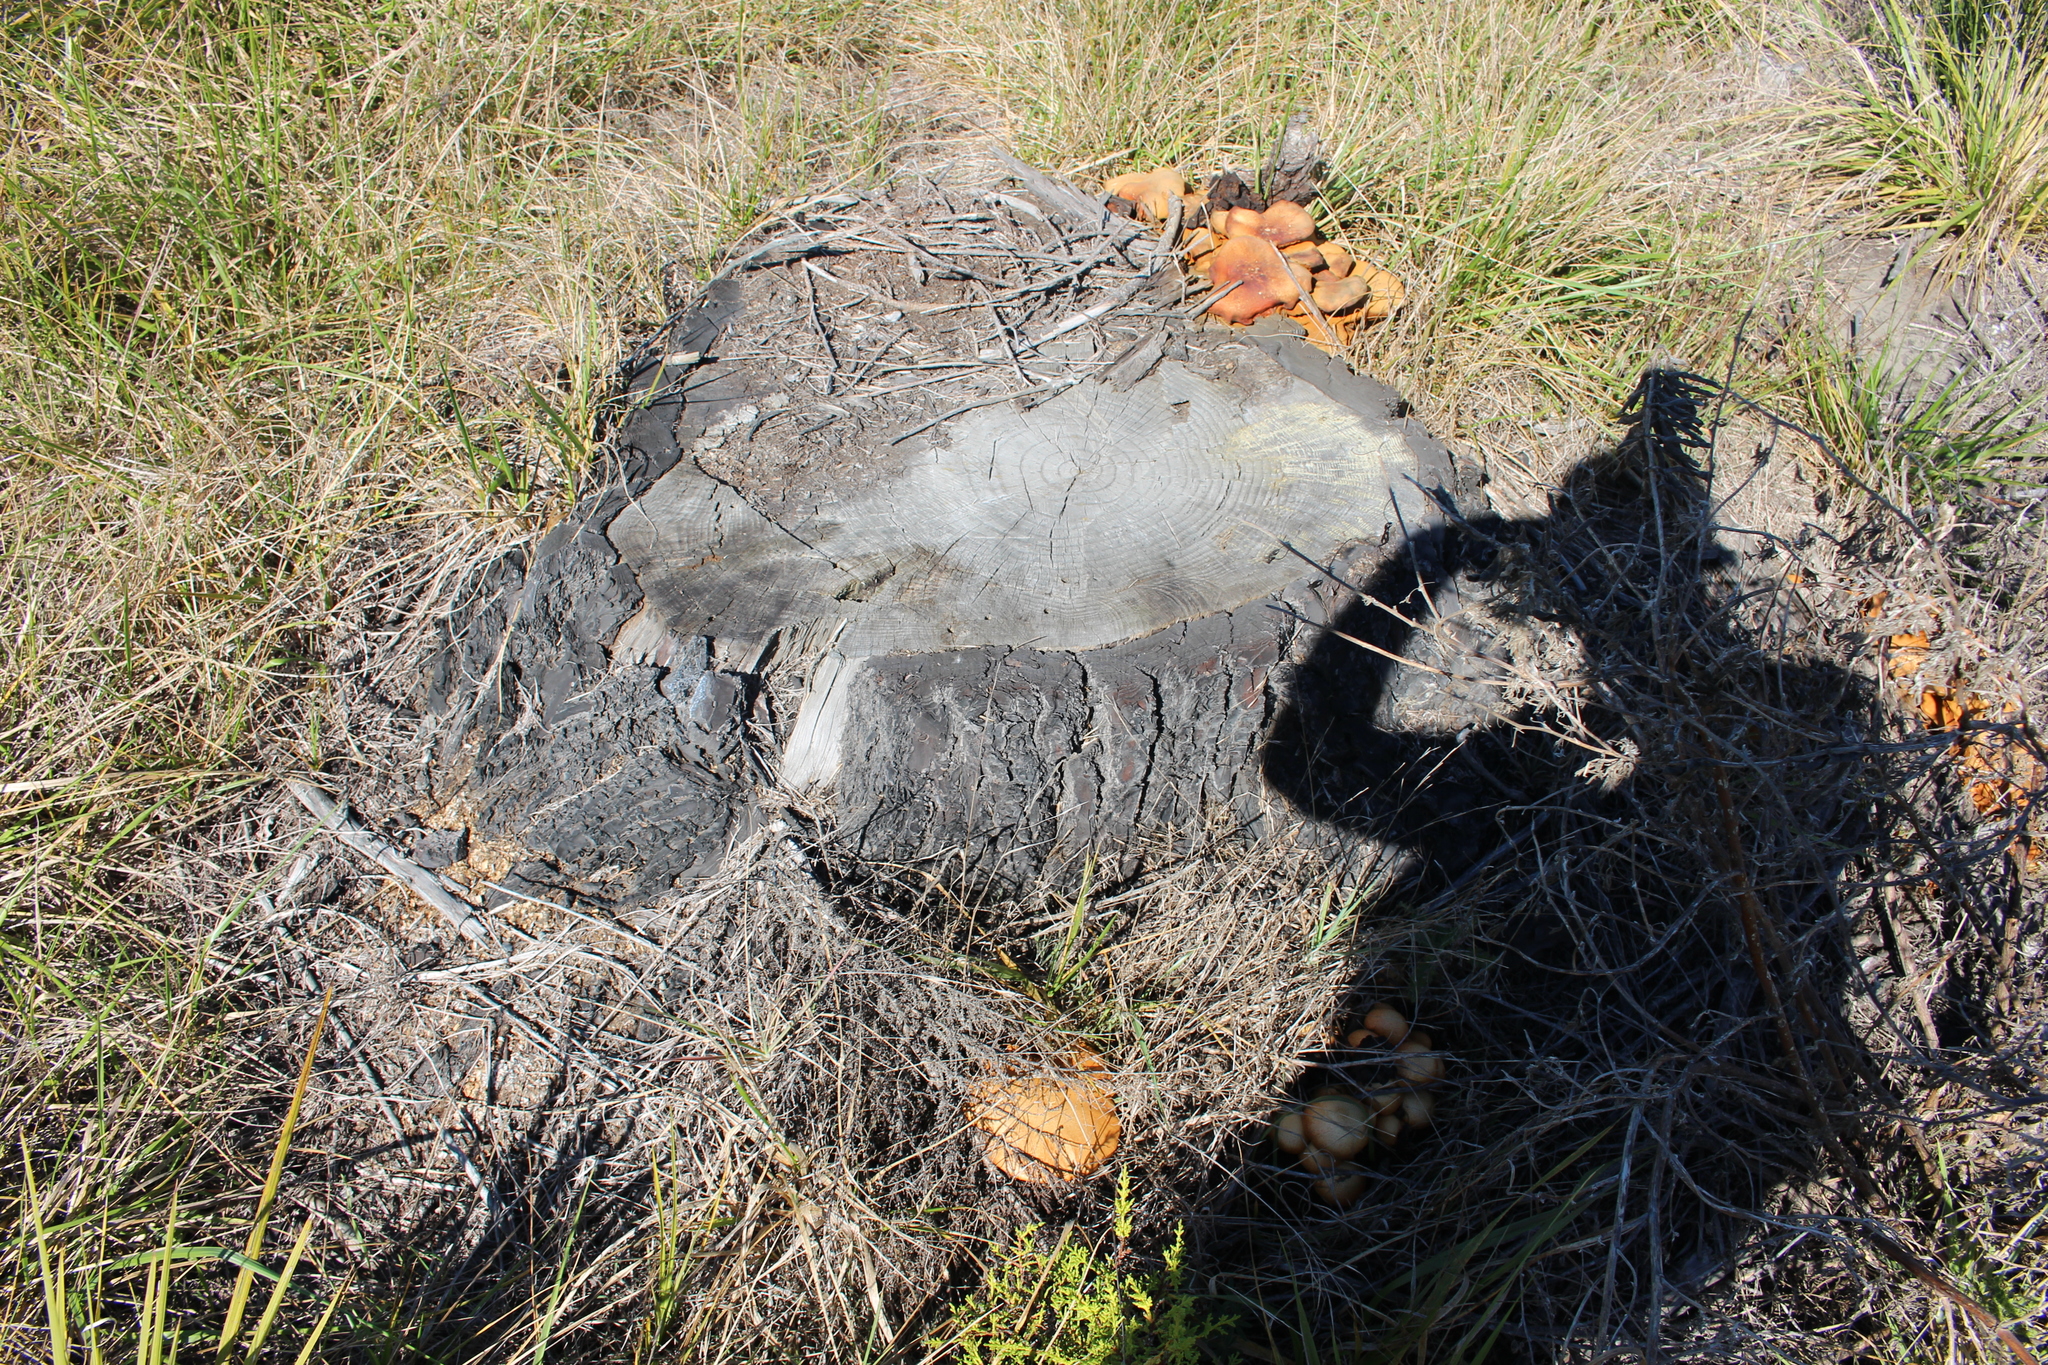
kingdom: Fungi
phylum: Basidiomycota
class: Agaricomycetes
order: Agaricales
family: Hymenogastraceae
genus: Gymnopilus
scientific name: Gymnopilus junonius
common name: Spectacular rustgill
